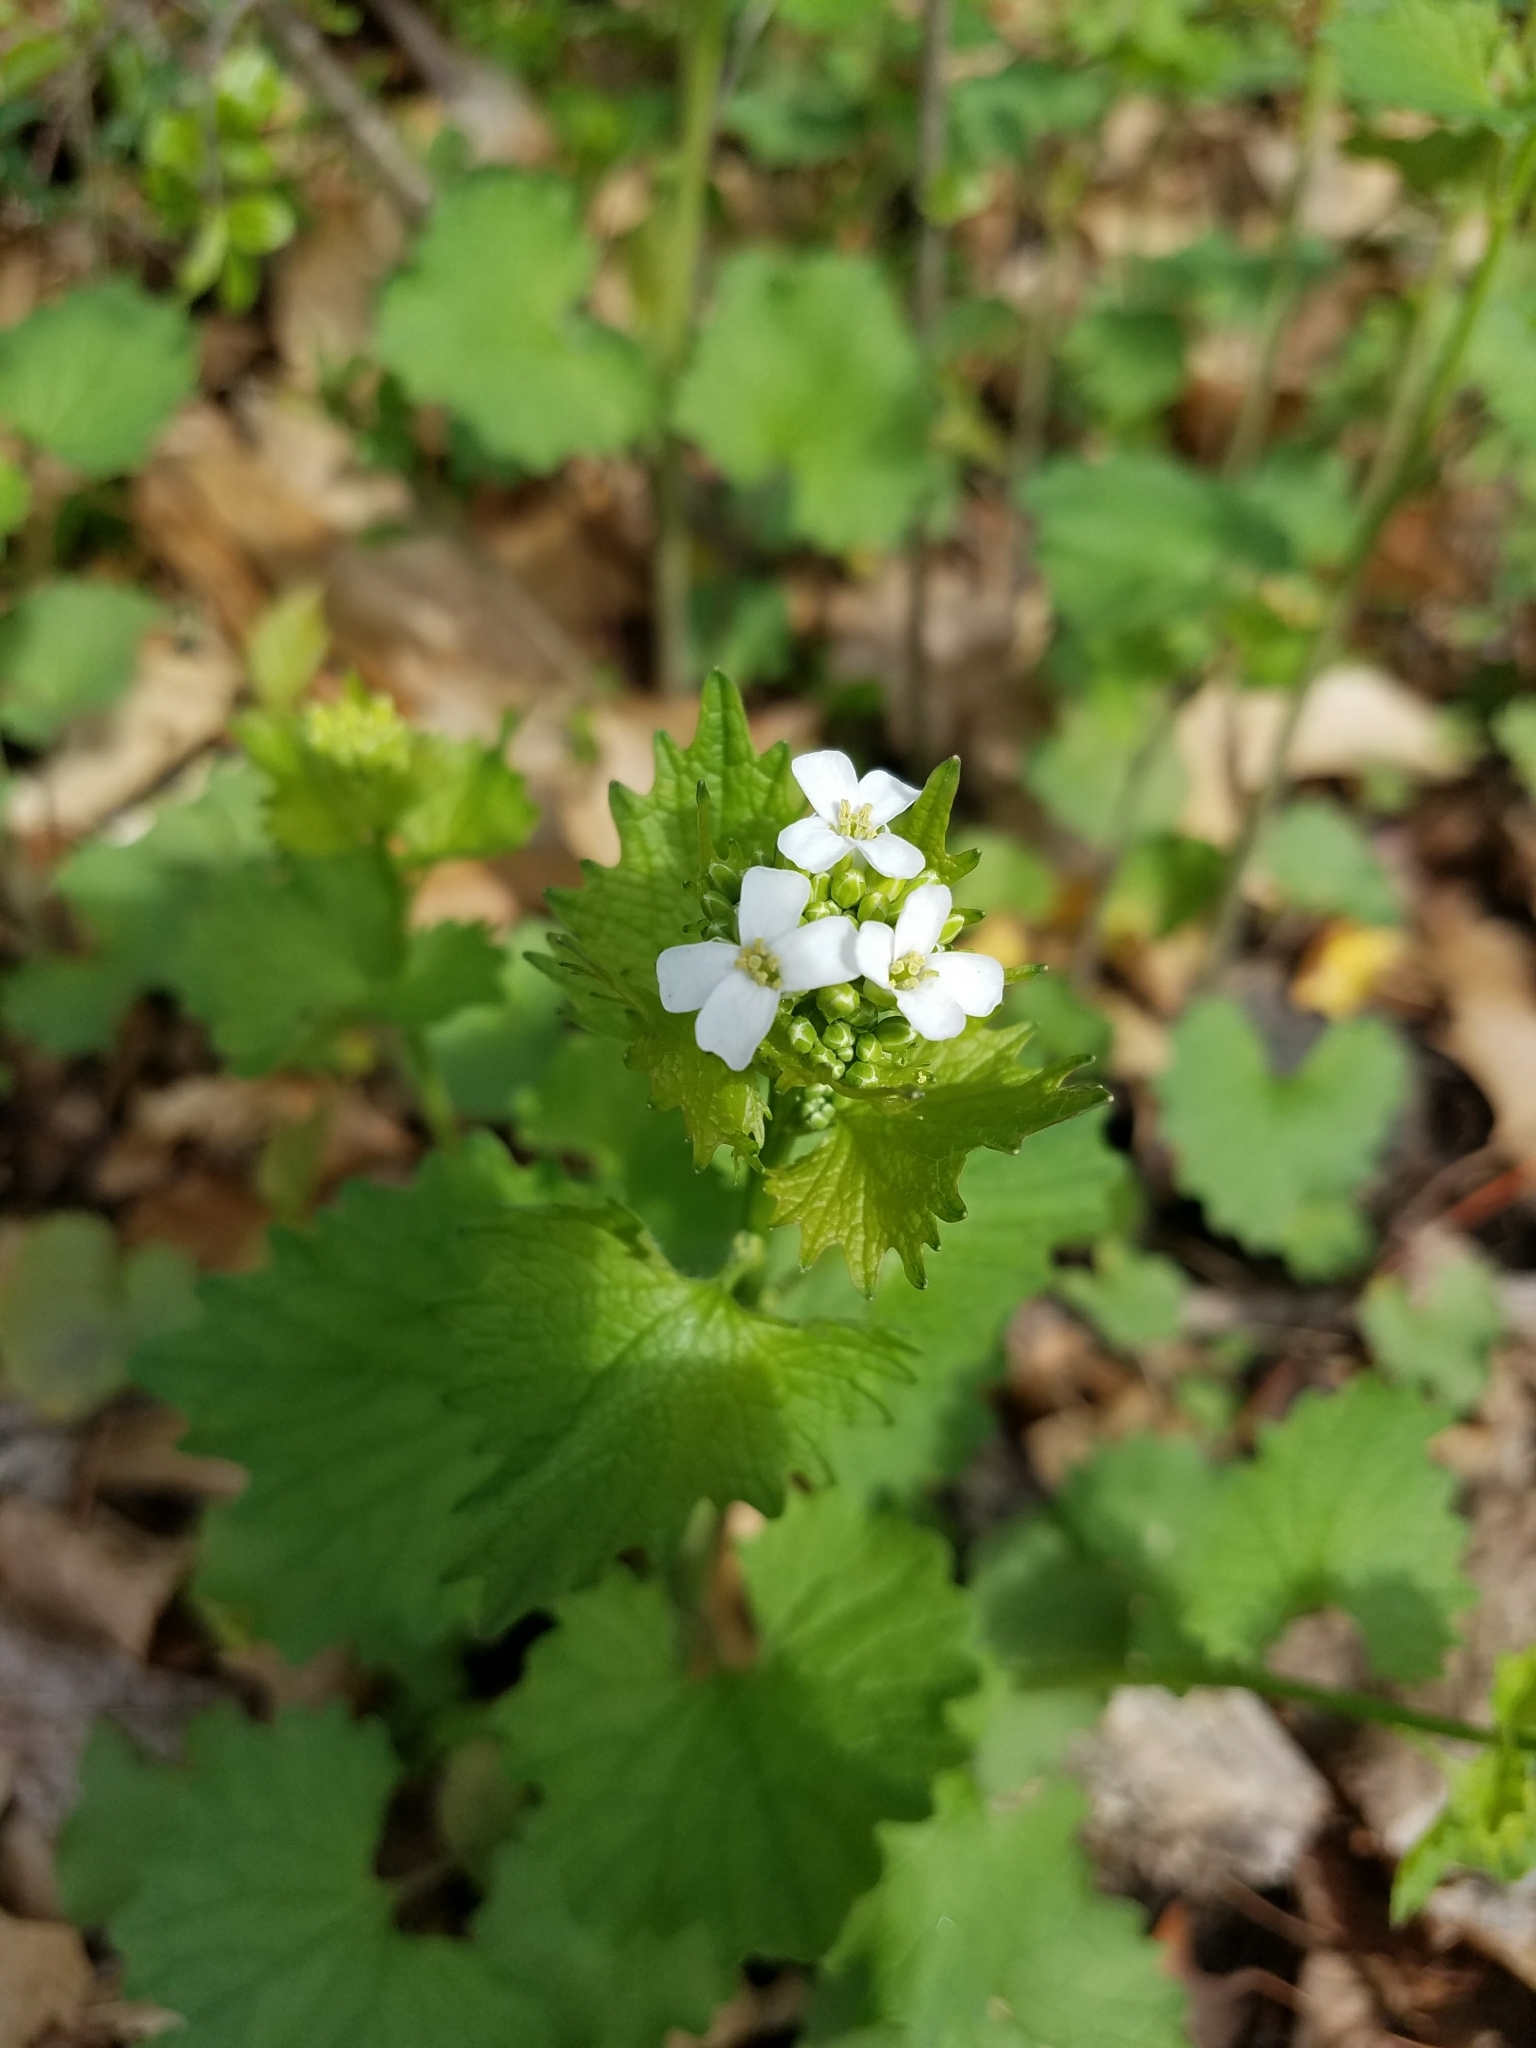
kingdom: Plantae
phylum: Tracheophyta
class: Magnoliopsida
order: Brassicales
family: Brassicaceae
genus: Alliaria
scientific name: Alliaria petiolata
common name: Garlic mustard
